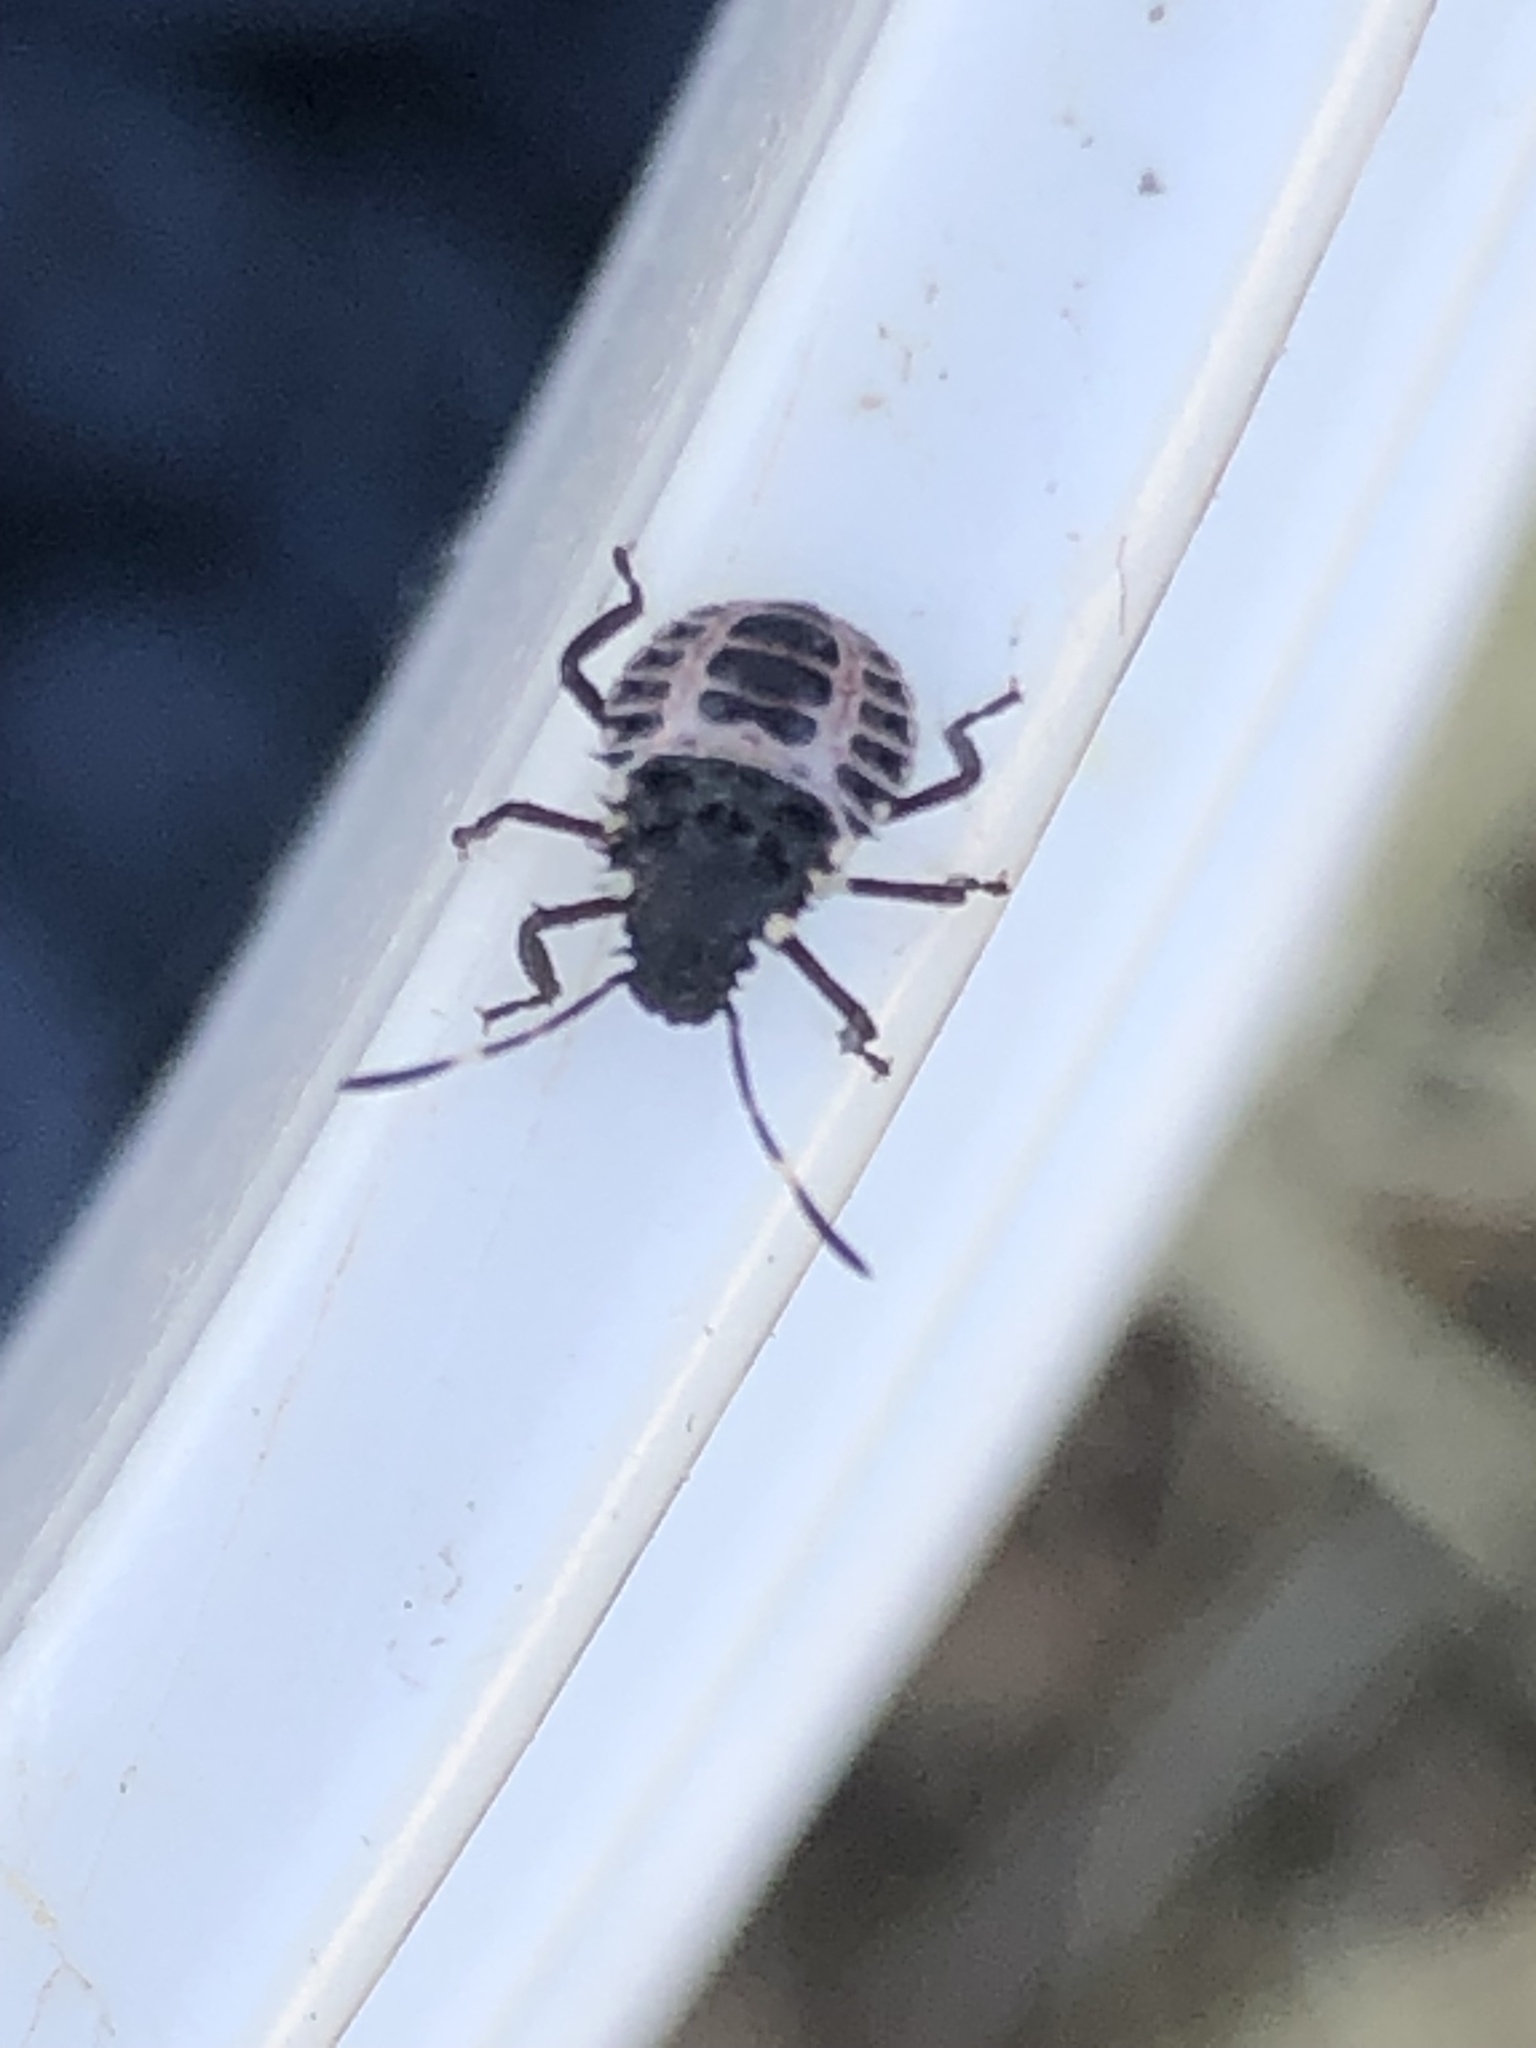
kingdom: Animalia
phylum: Arthropoda
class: Insecta
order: Hemiptera
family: Pentatomidae
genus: Halyomorpha
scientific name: Halyomorpha halys
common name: Brown marmorated stink bug
